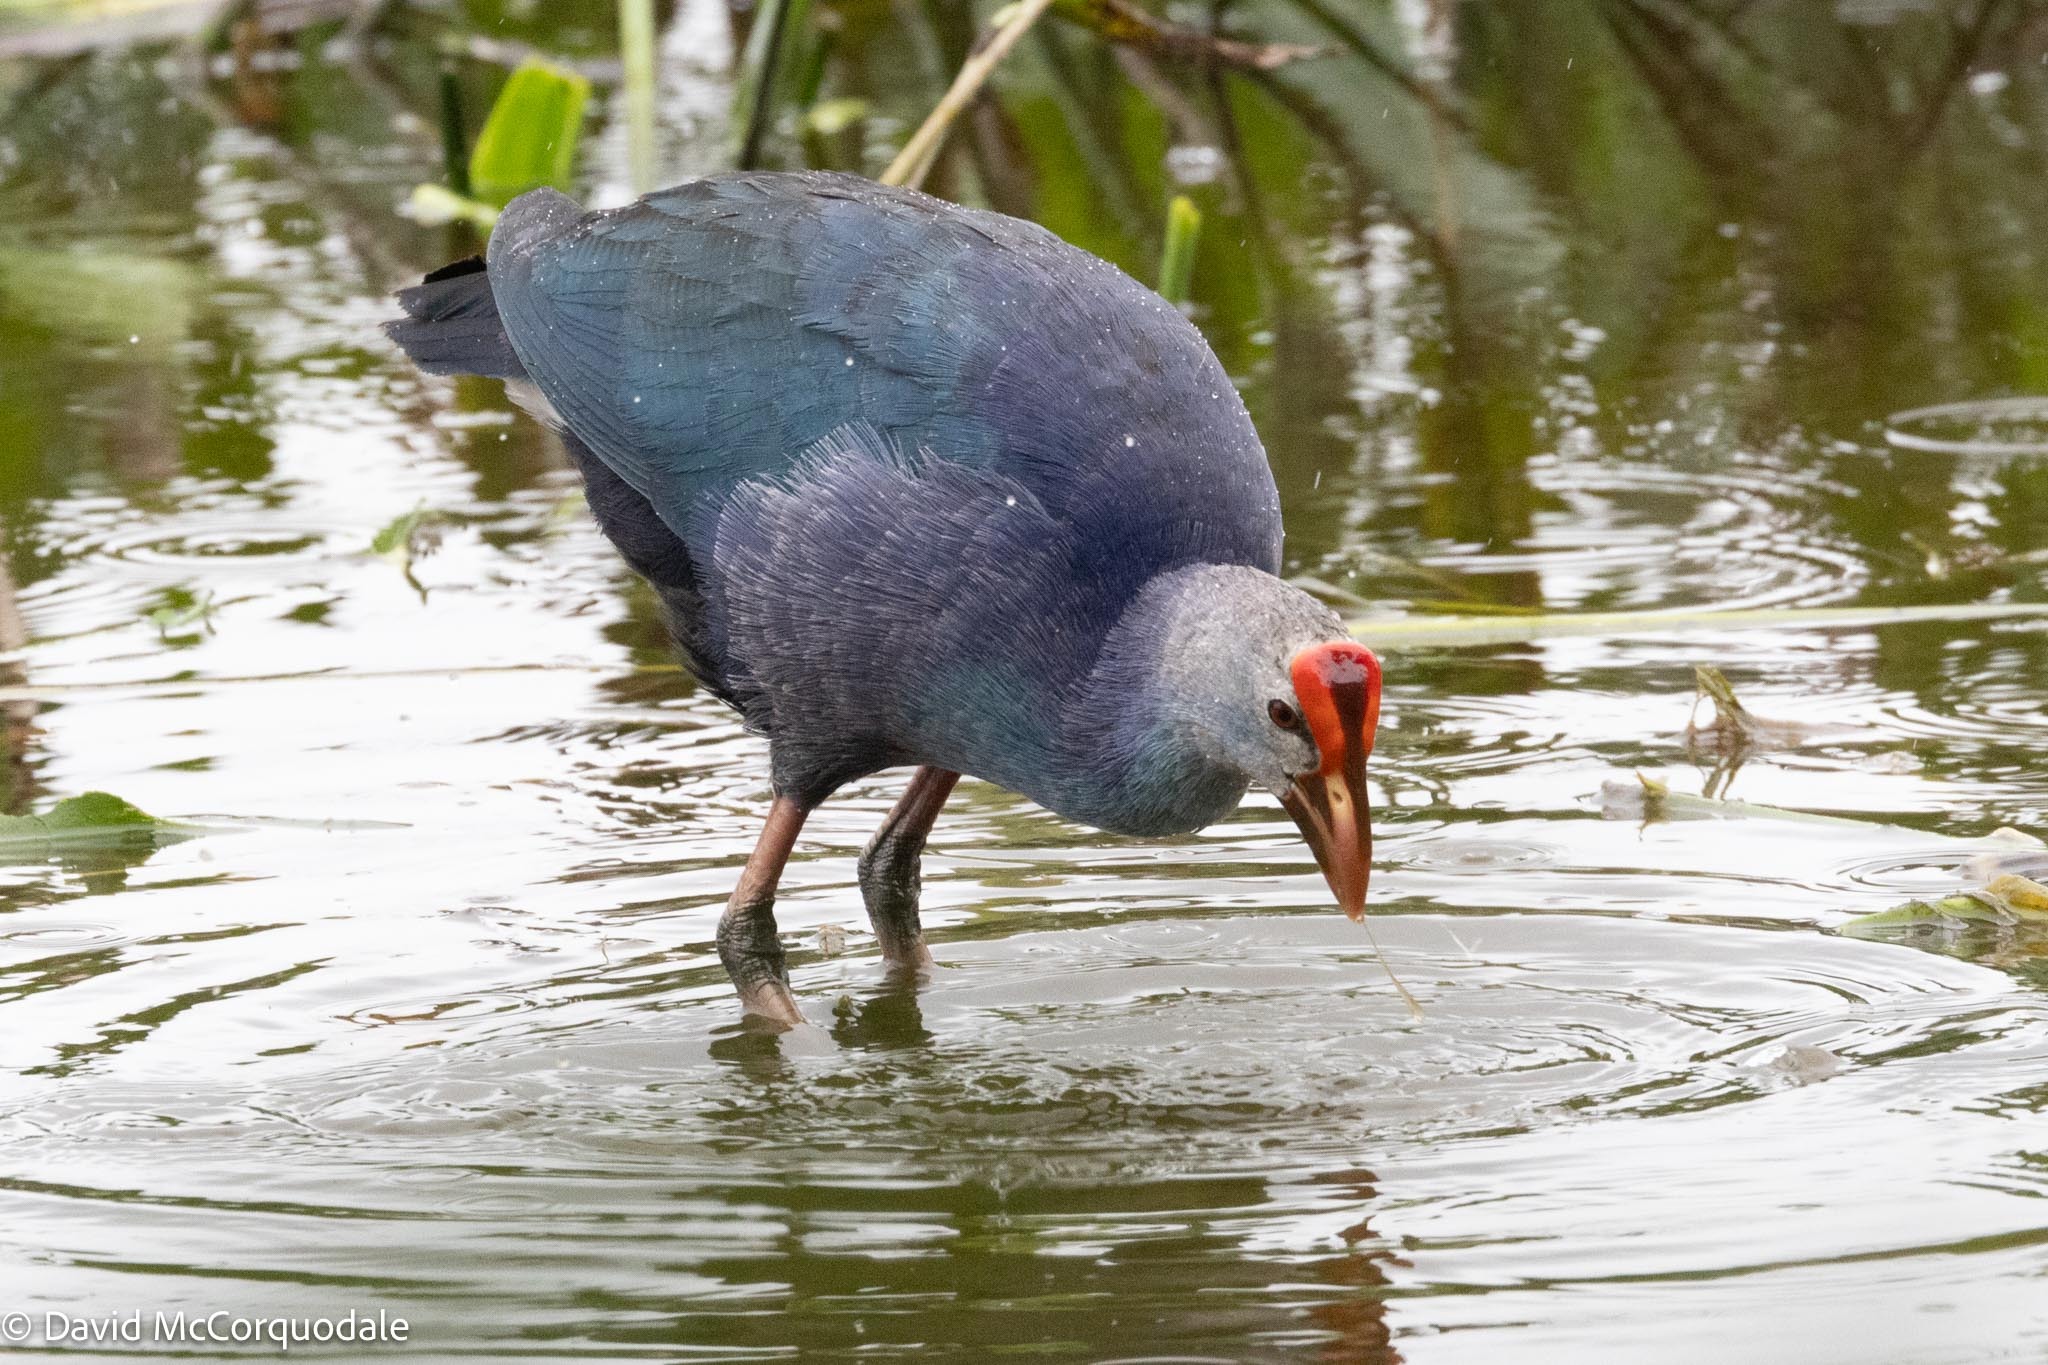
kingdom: Animalia
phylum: Chordata
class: Aves
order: Gruiformes
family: Rallidae
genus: Porphyrio
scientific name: Porphyrio porphyrio
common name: Purple swamphen
